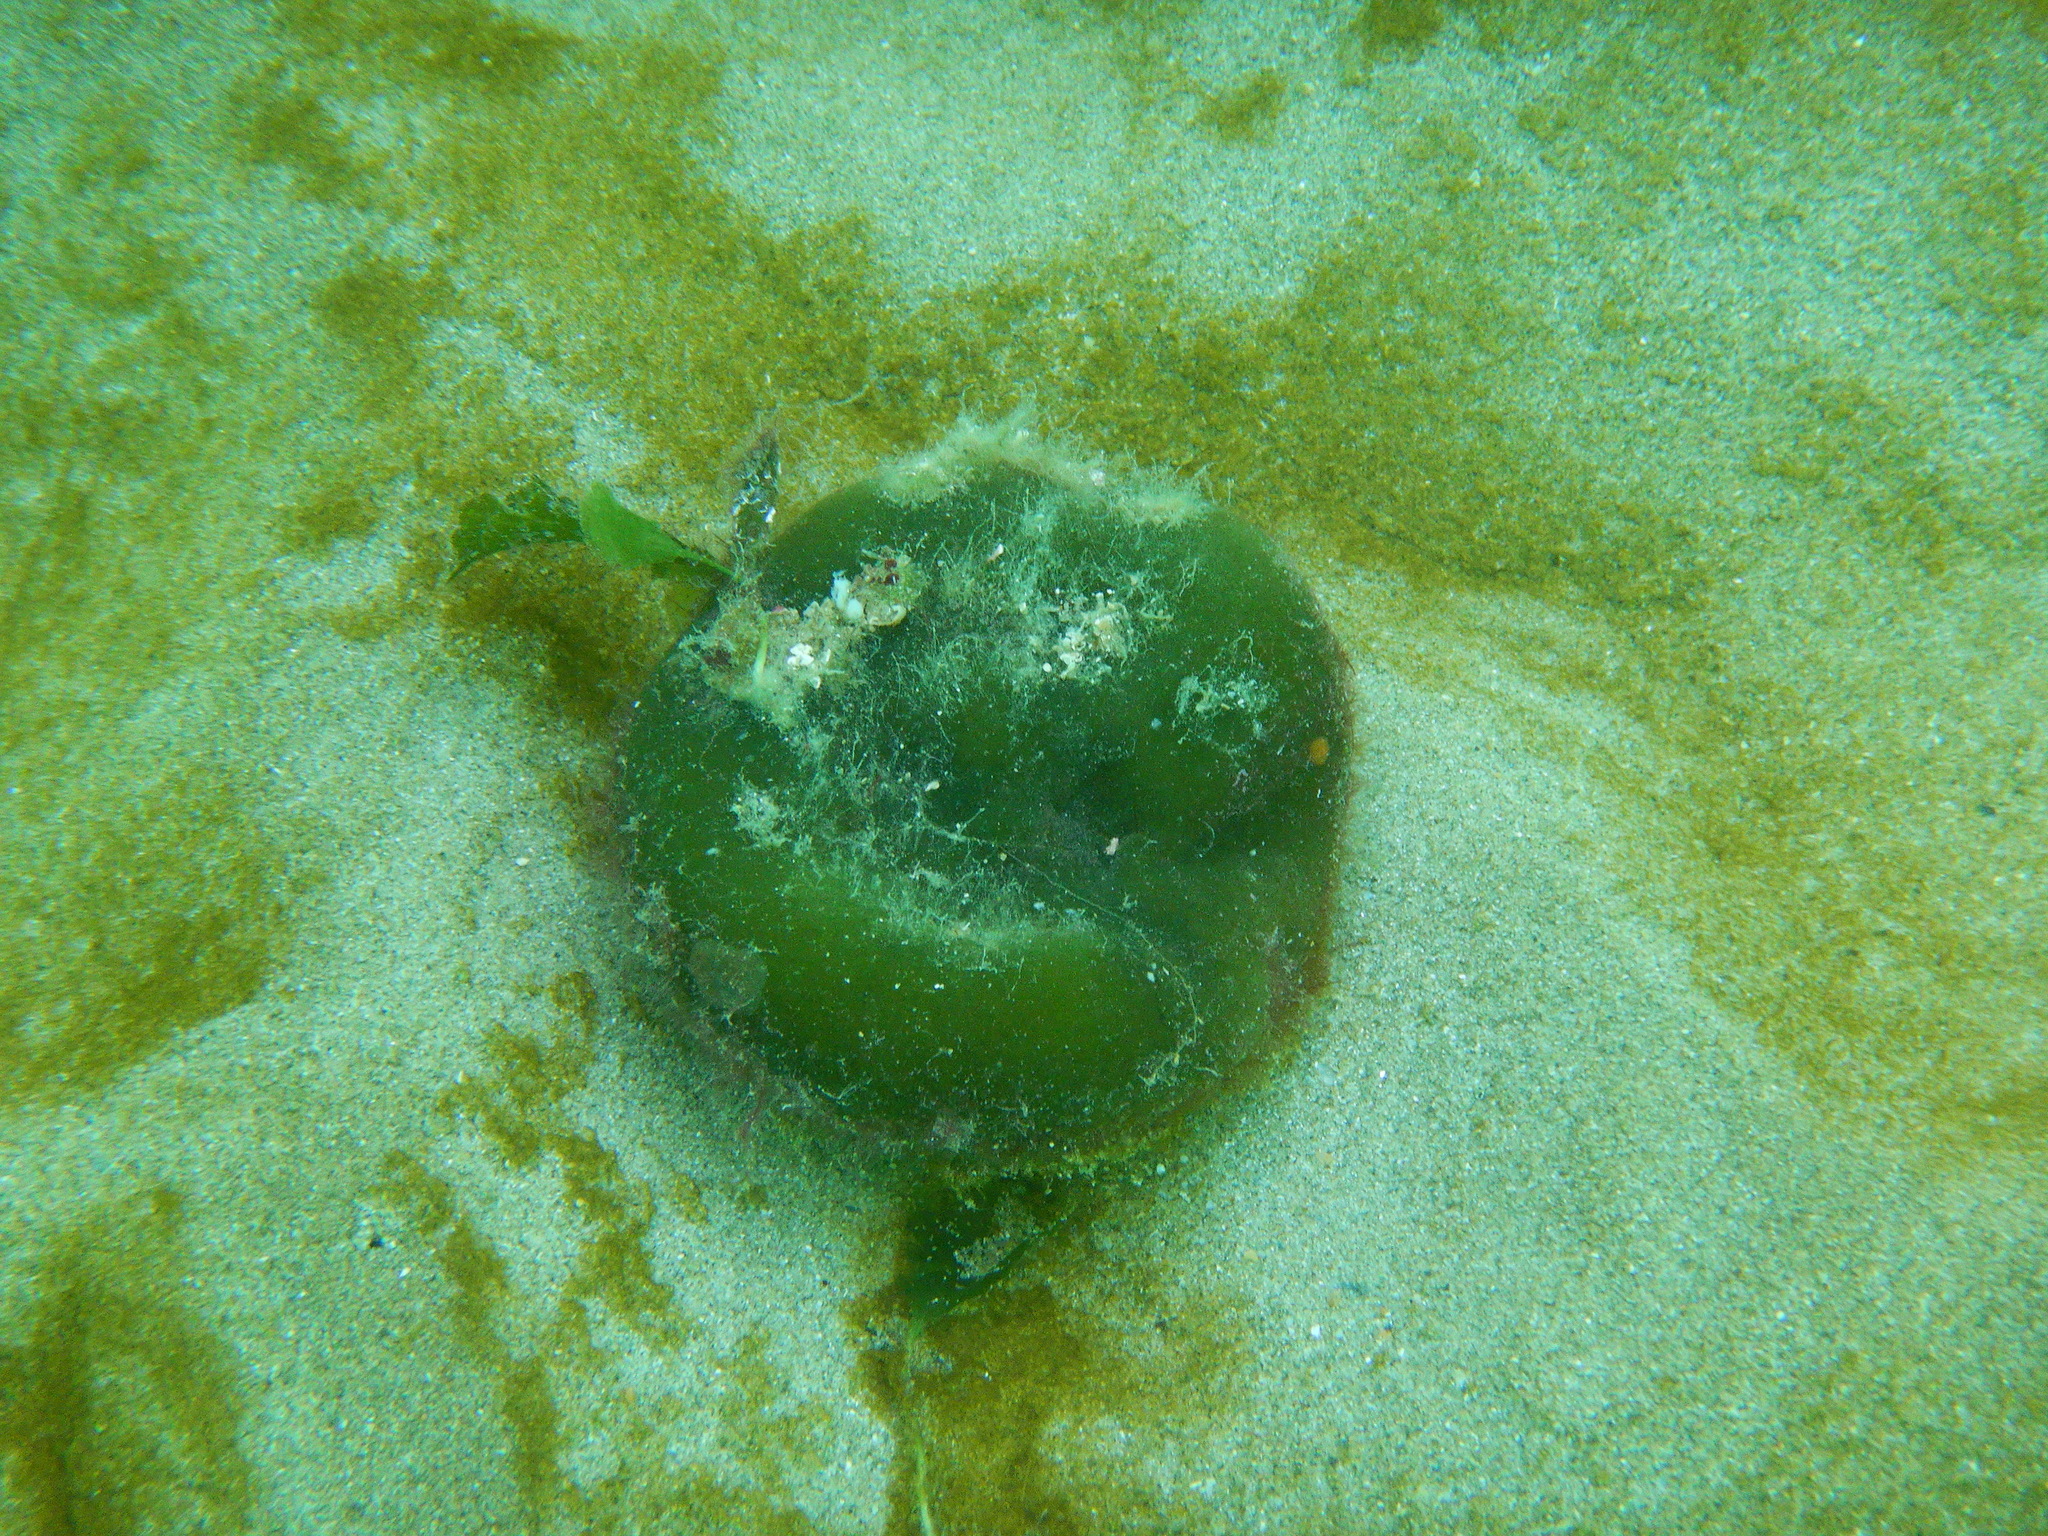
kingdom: Plantae
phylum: Chlorophyta
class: Ulvophyceae
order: Bryopsidales
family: Codiaceae
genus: Codium
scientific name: Codium bursa
